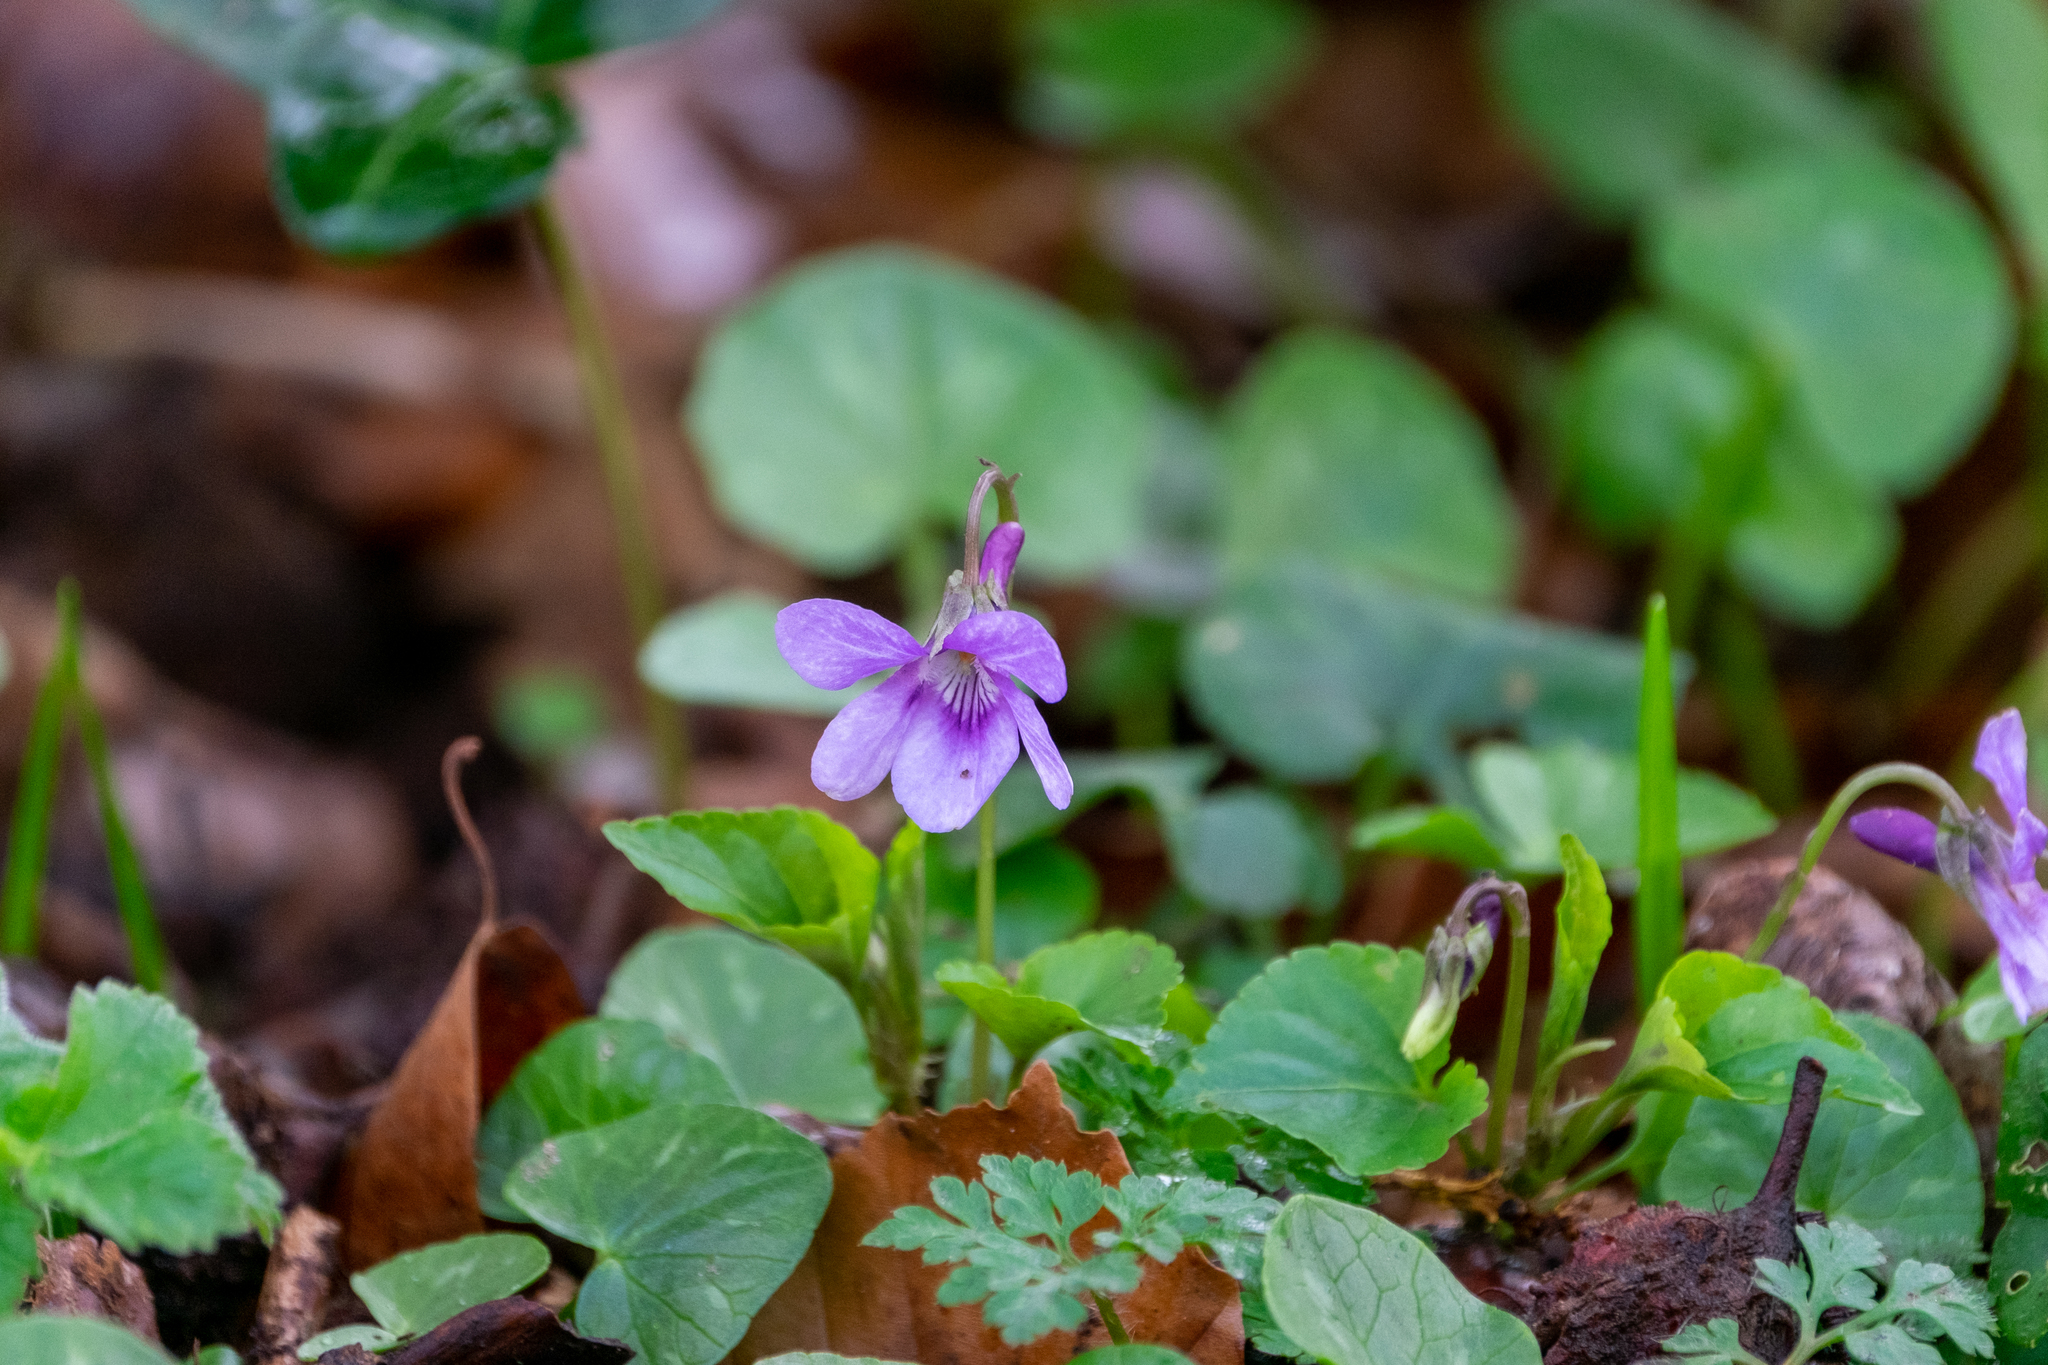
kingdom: Plantae
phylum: Tracheophyta
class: Magnoliopsida
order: Malpighiales
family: Violaceae
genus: Viola
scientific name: Viola reichenbachiana
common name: Early dog-violet
